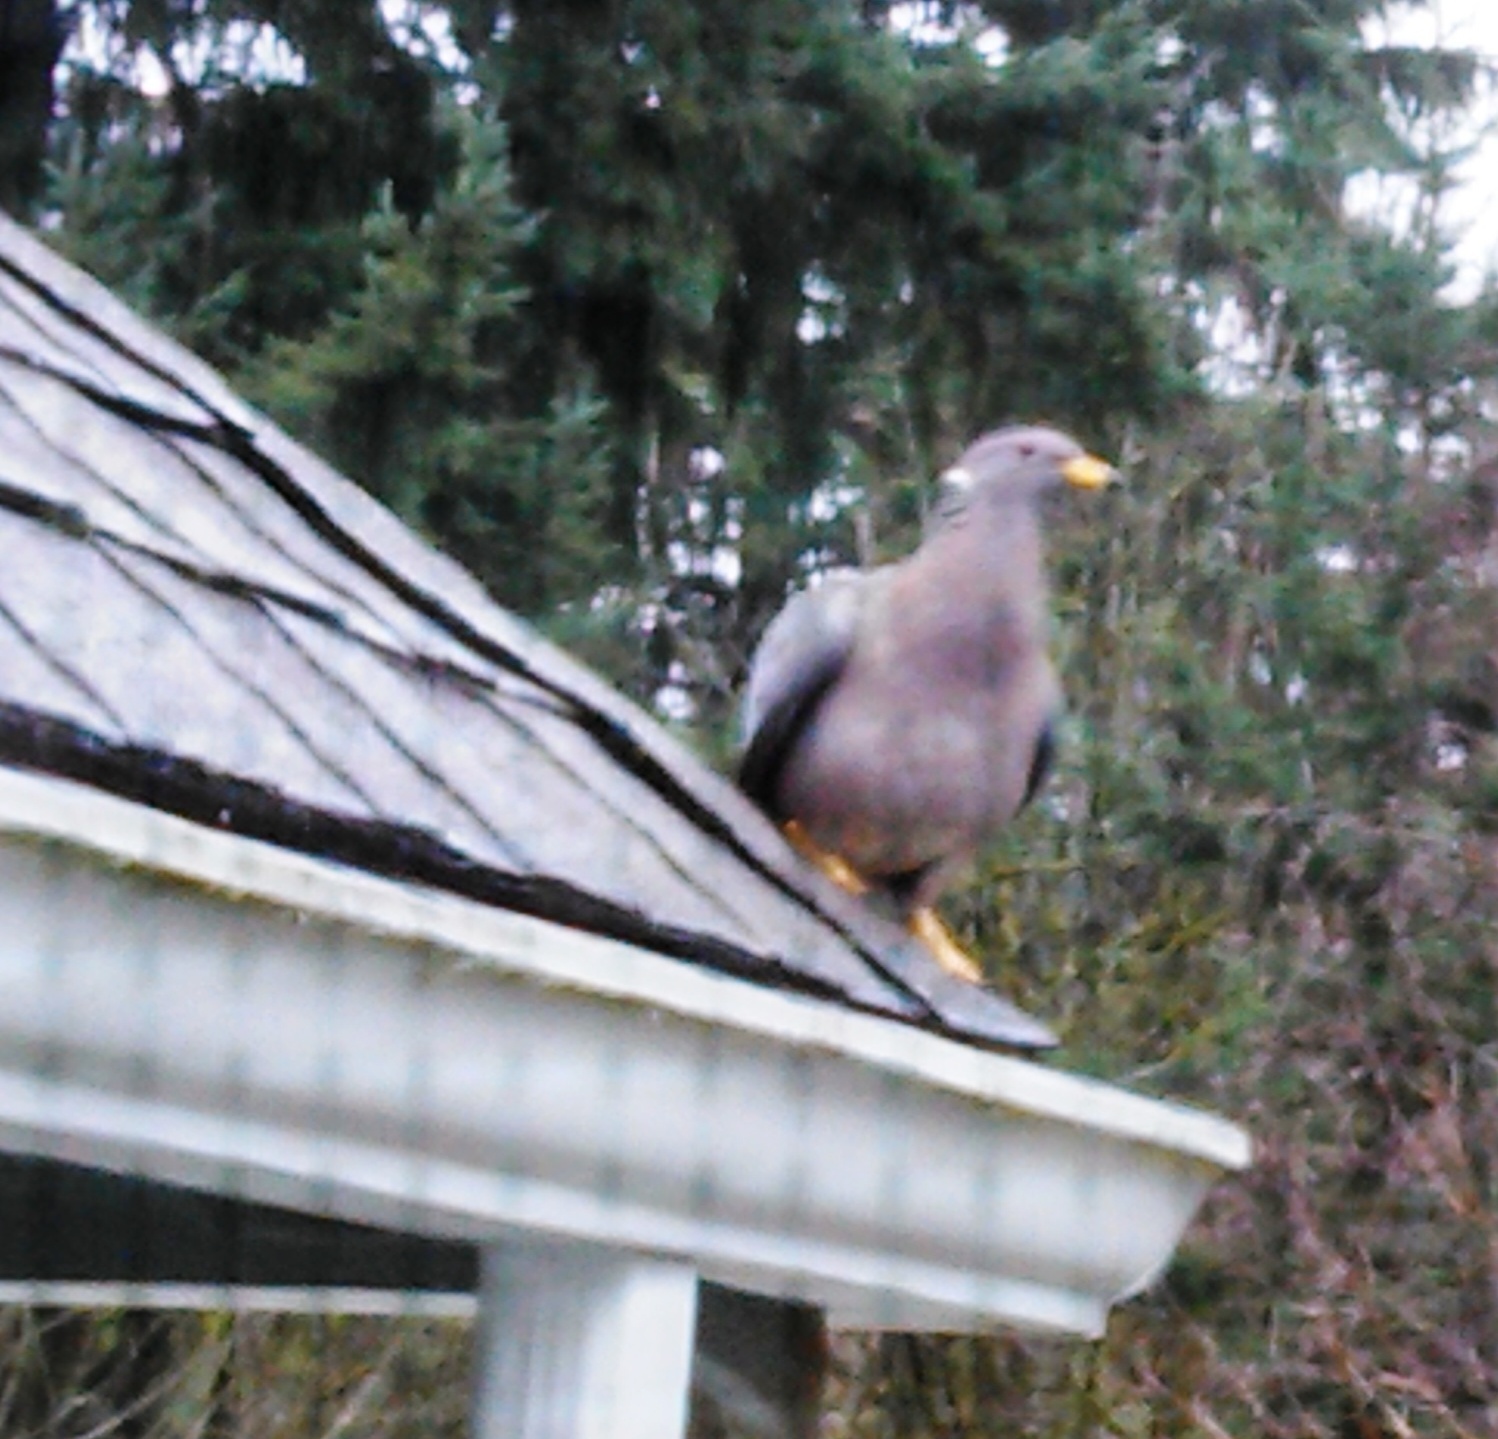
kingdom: Animalia
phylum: Chordata
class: Aves
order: Columbiformes
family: Columbidae
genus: Patagioenas
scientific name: Patagioenas fasciata
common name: Band-tailed pigeon
